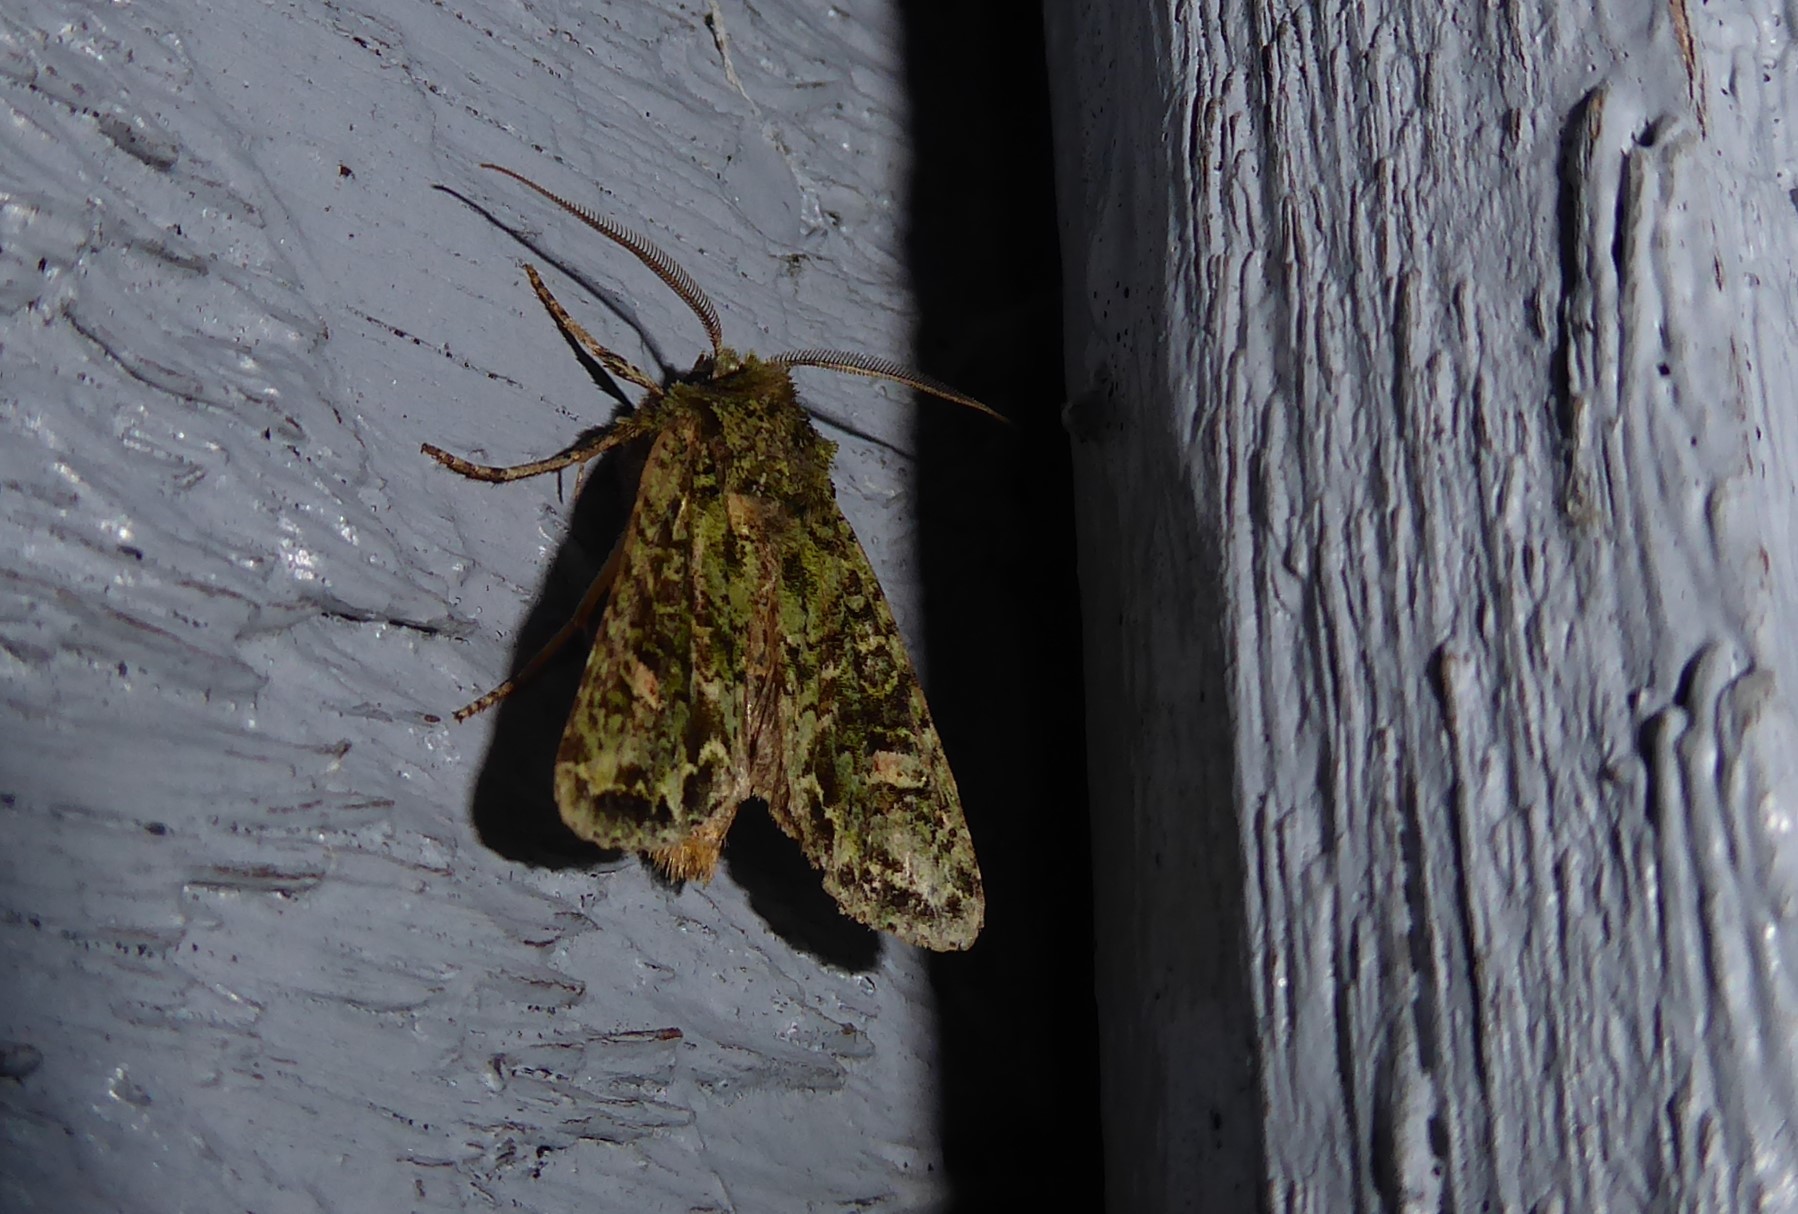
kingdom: Animalia
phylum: Arthropoda
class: Insecta
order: Lepidoptera
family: Noctuidae
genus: Ichneutica
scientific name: Ichneutica
